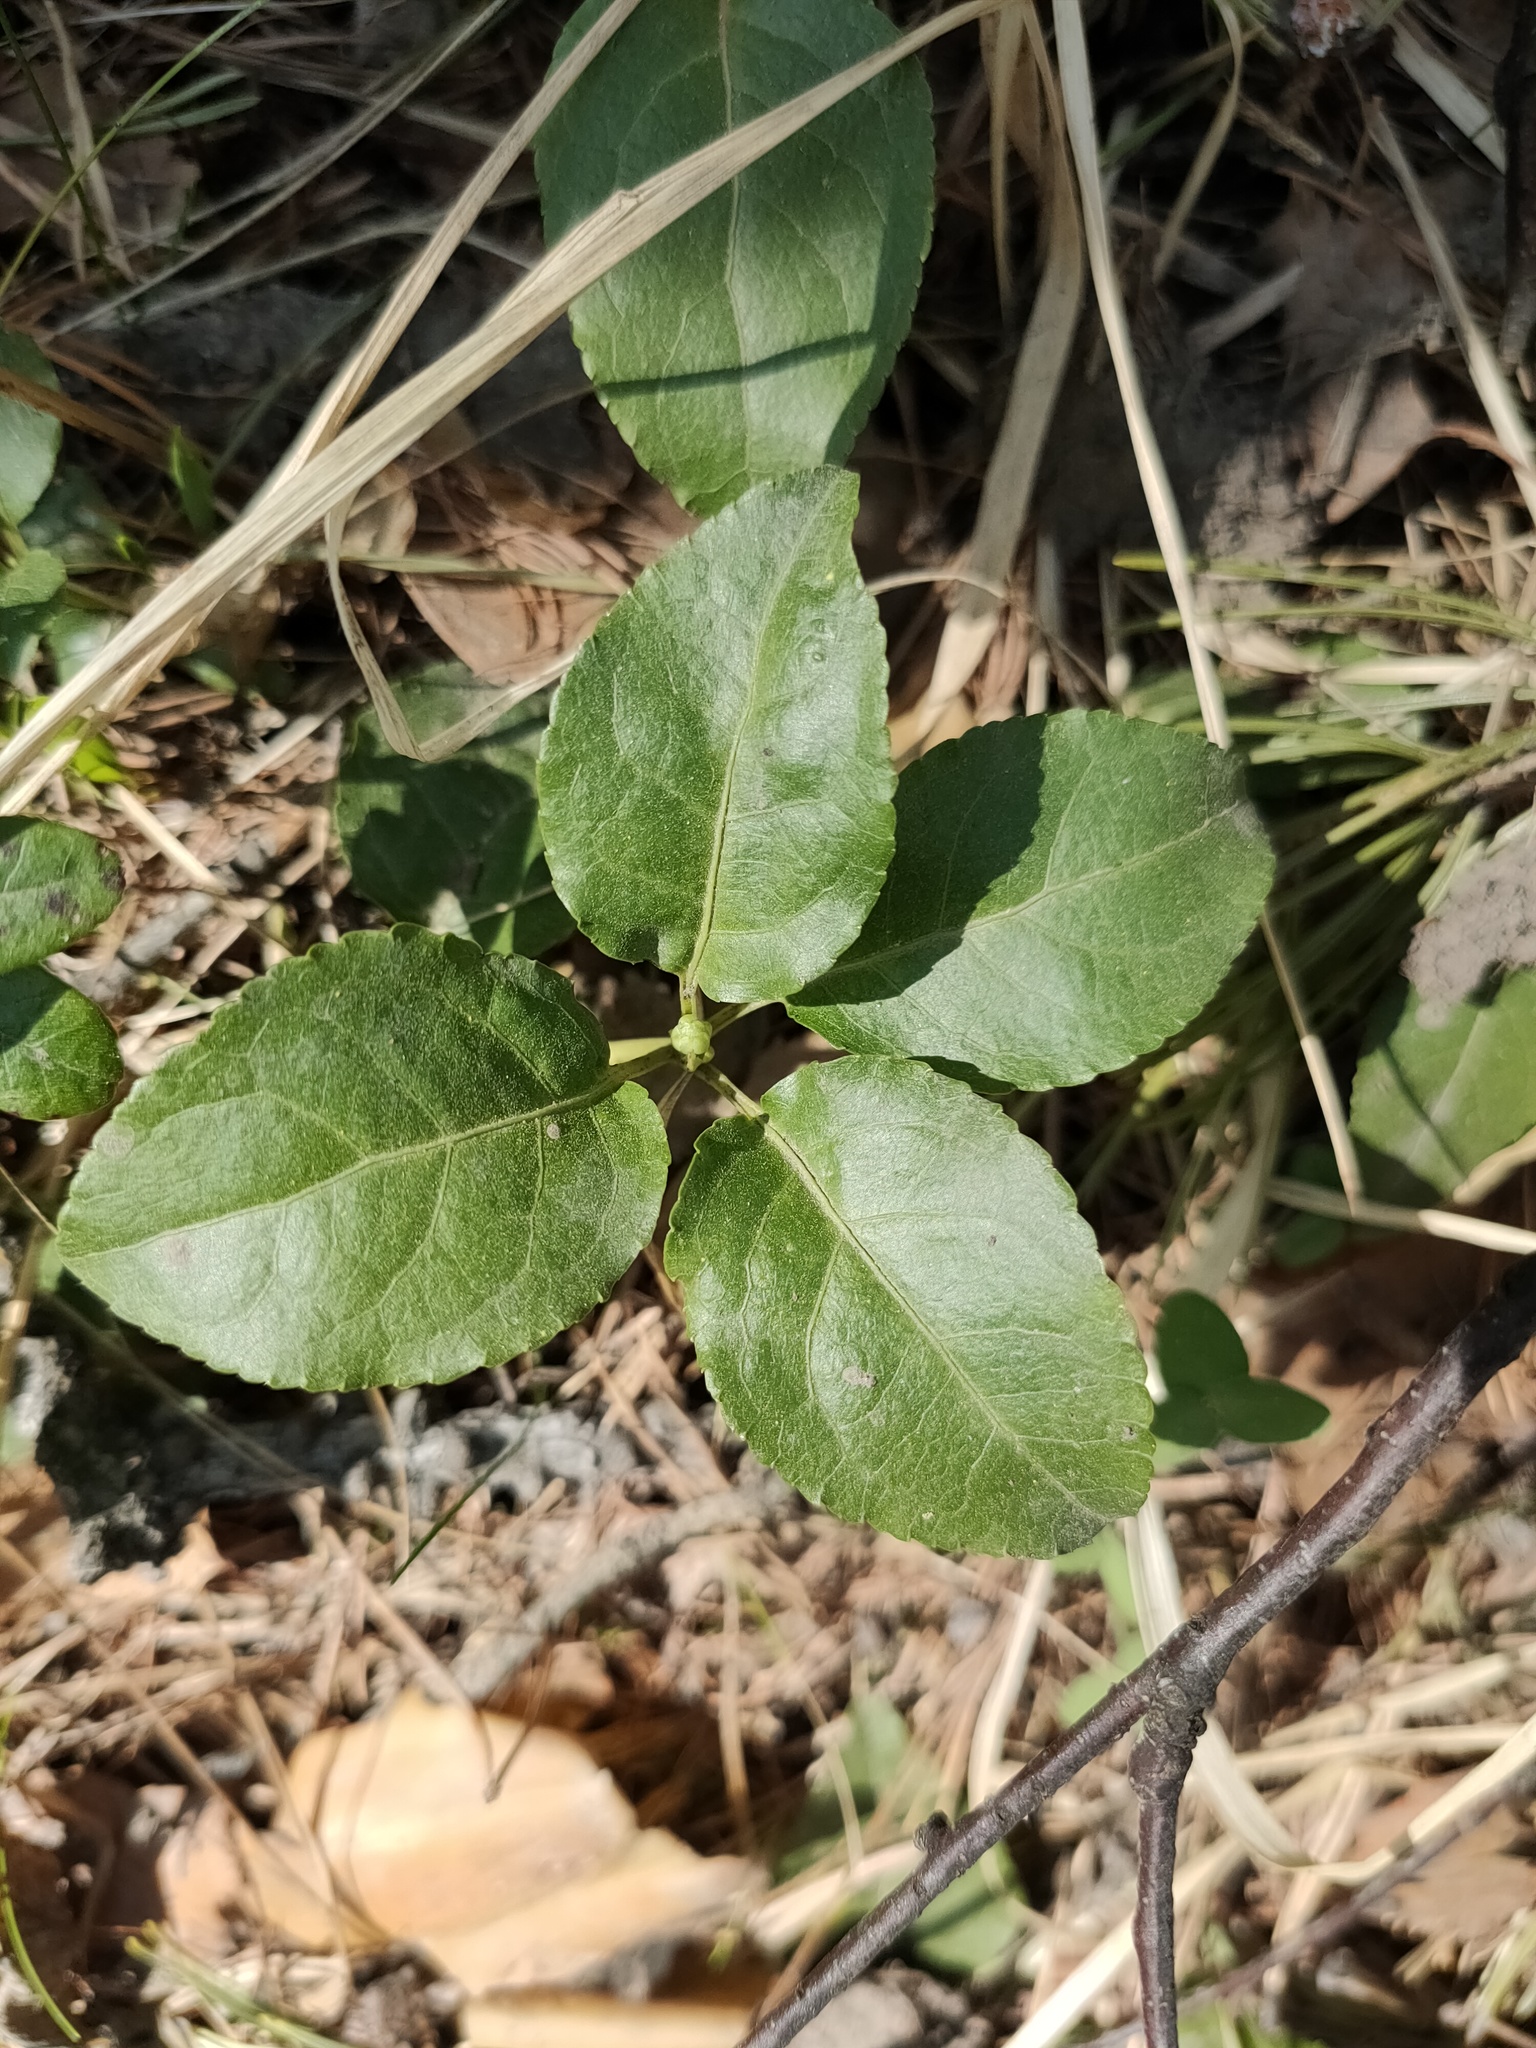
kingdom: Plantae
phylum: Tracheophyta
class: Magnoliopsida
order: Ericales
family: Ericaceae
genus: Orthilia
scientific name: Orthilia secunda
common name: One-sided orthilia
